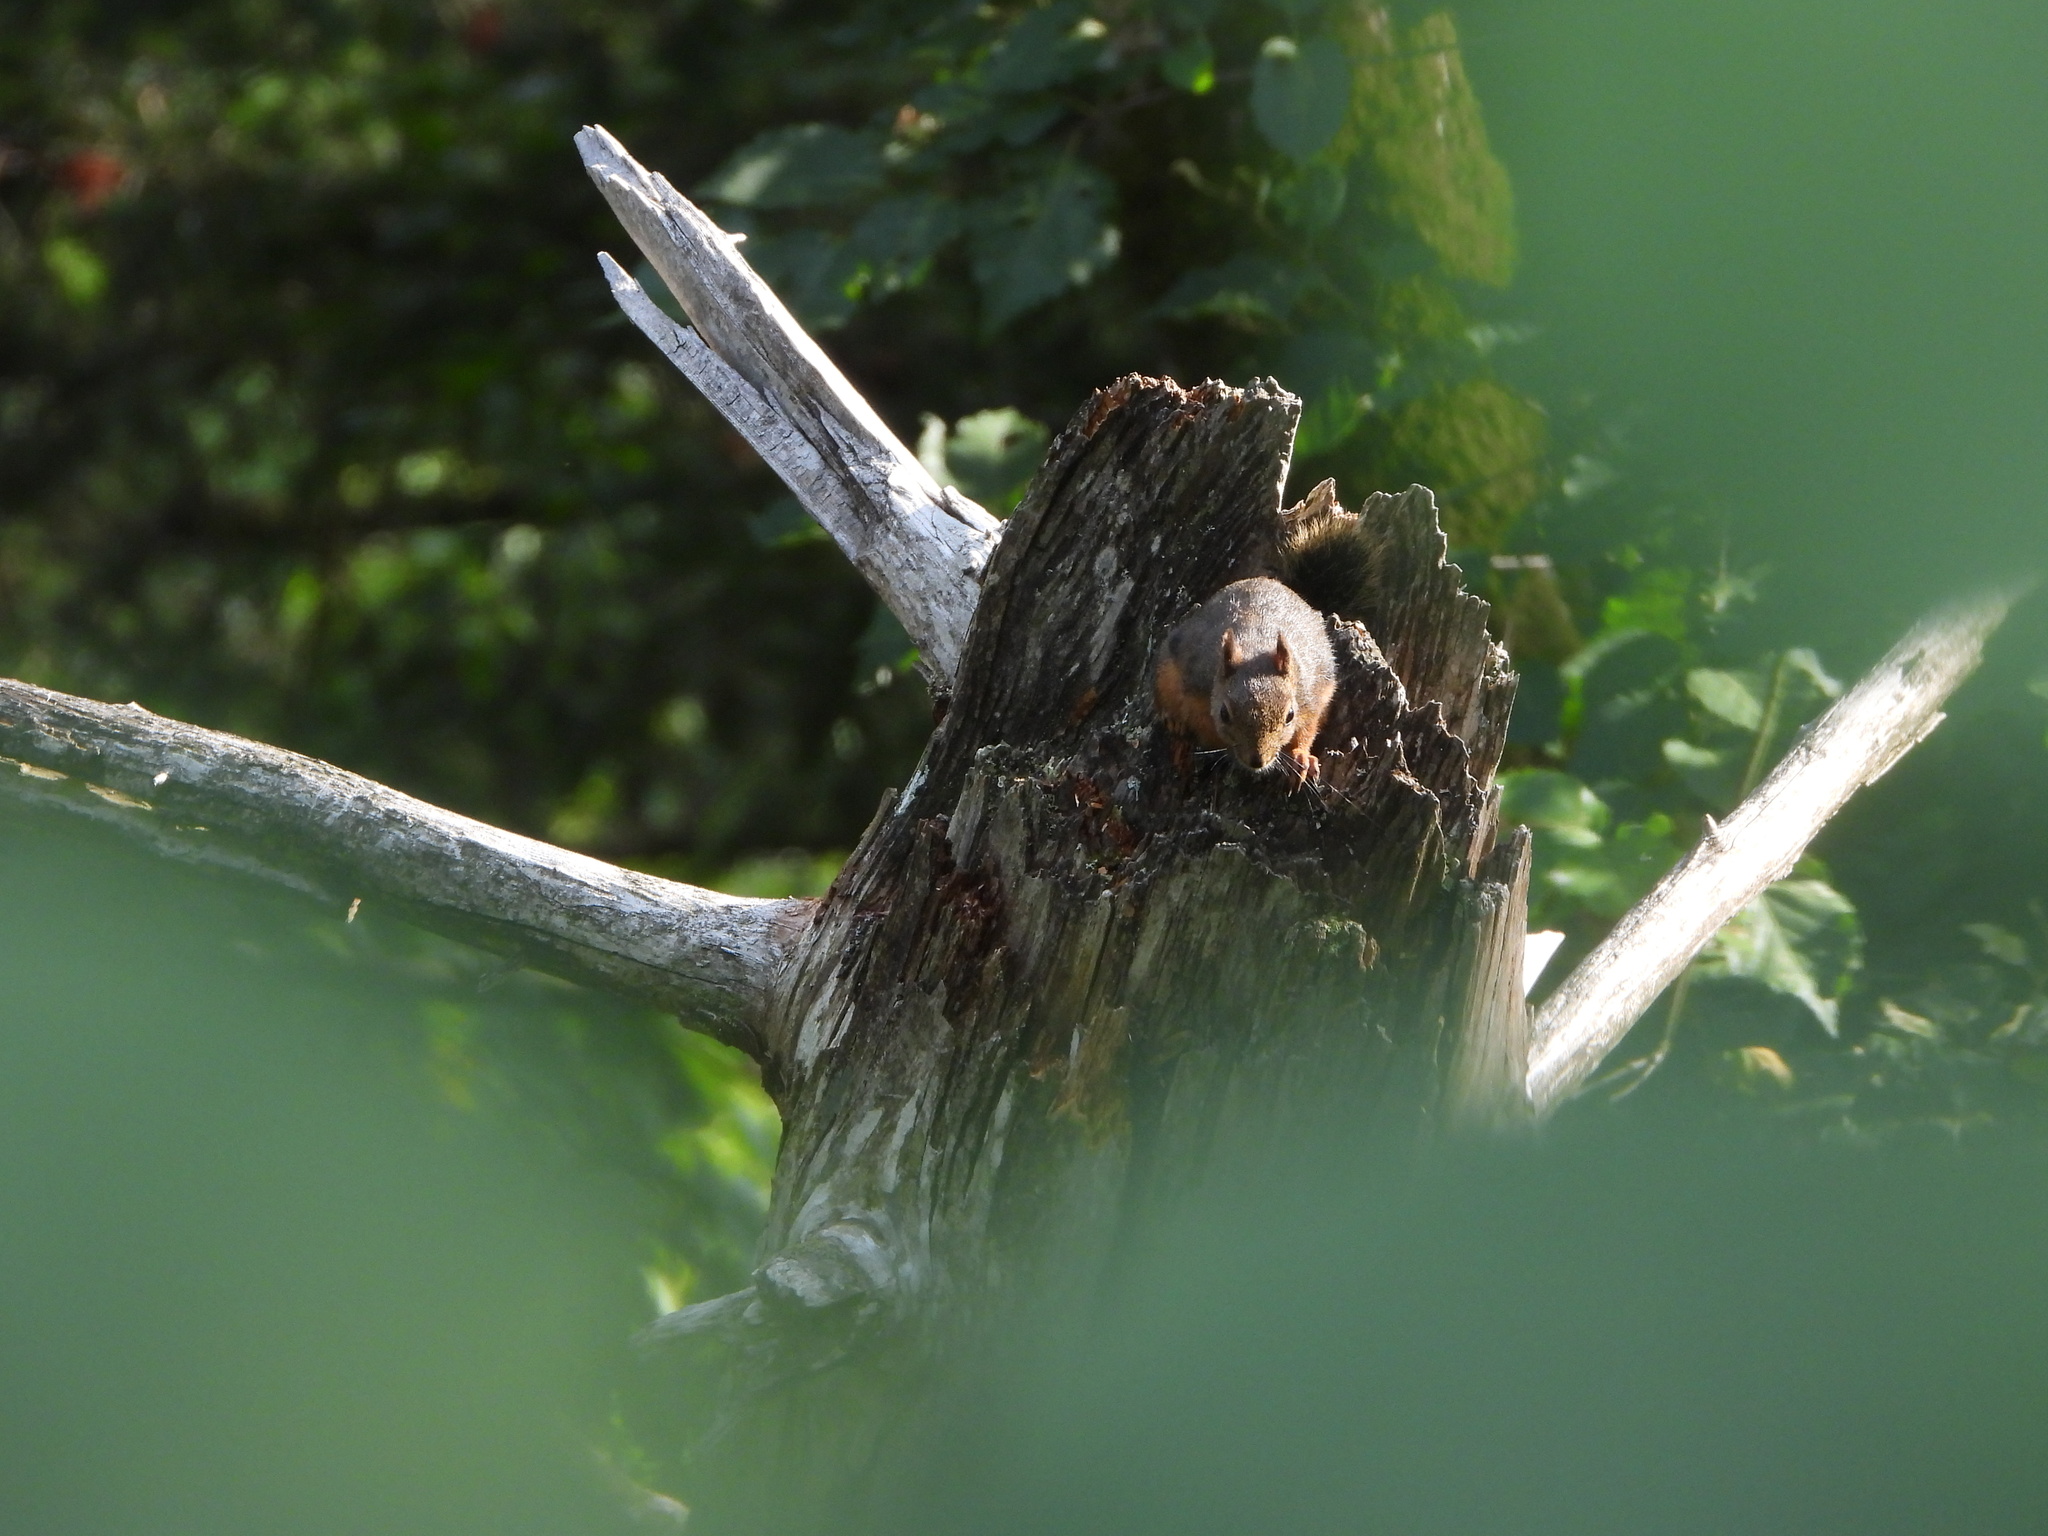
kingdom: Animalia
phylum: Chordata
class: Mammalia
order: Rodentia
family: Sciuridae
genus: Tamiasciurus
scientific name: Tamiasciurus douglasii
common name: Douglas's squirrel
